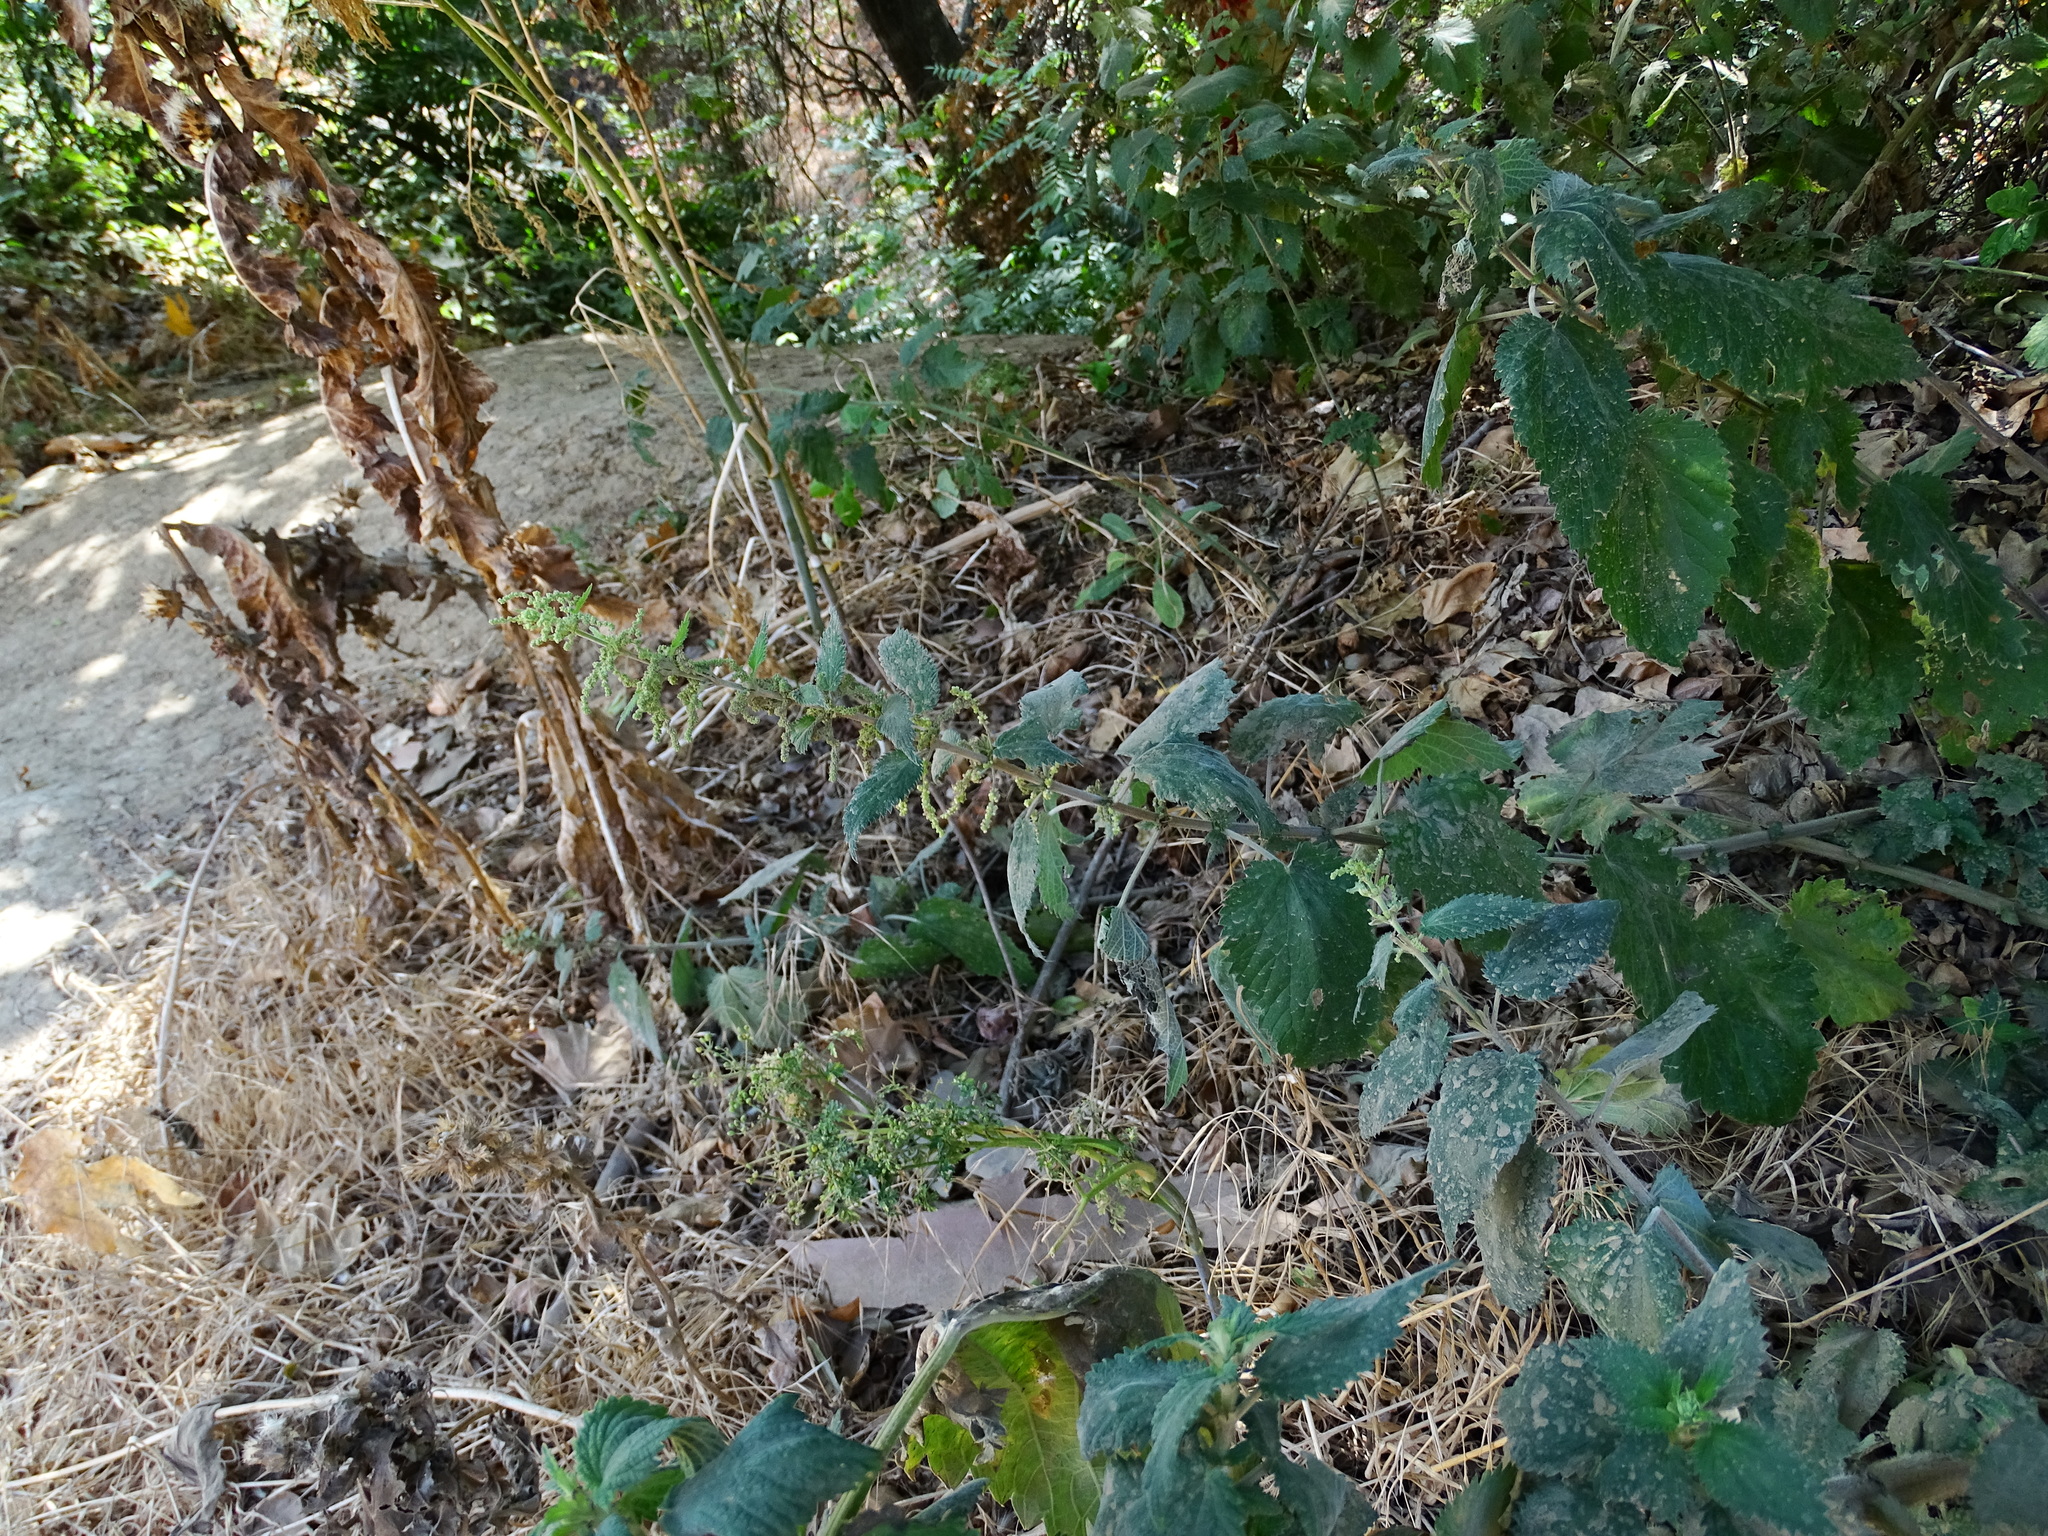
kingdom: Plantae
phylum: Tracheophyta
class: Magnoliopsida
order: Rosales
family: Urticaceae
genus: Urtica
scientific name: Urtica dioica
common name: Common nettle
